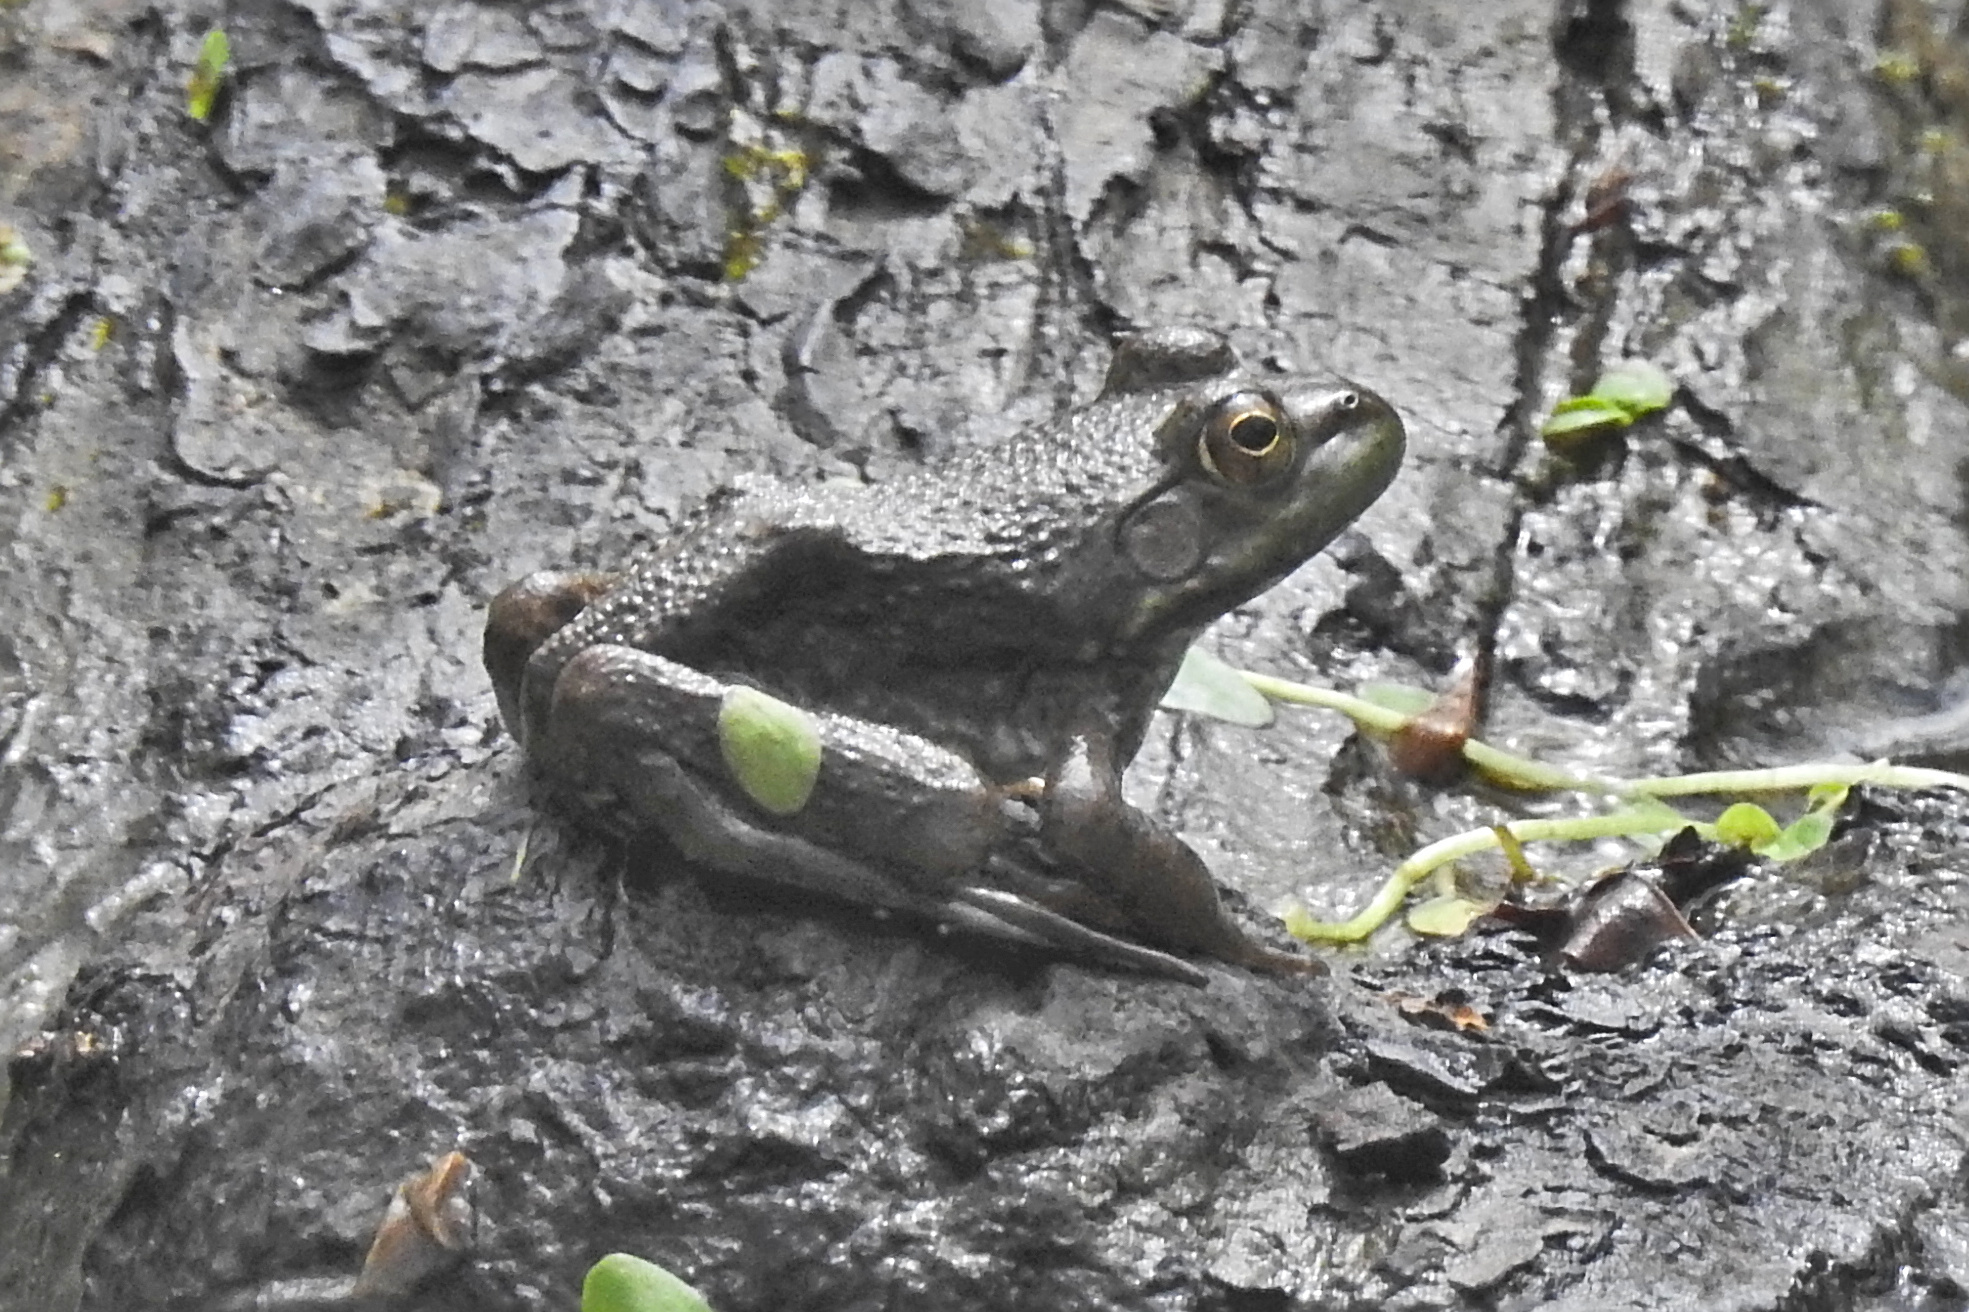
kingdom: Animalia
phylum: Chordata
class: Amphibia
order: Anura
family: Ranidae
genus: Lithobates
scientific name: Lithobates catesbeianus
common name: American bullfrog
